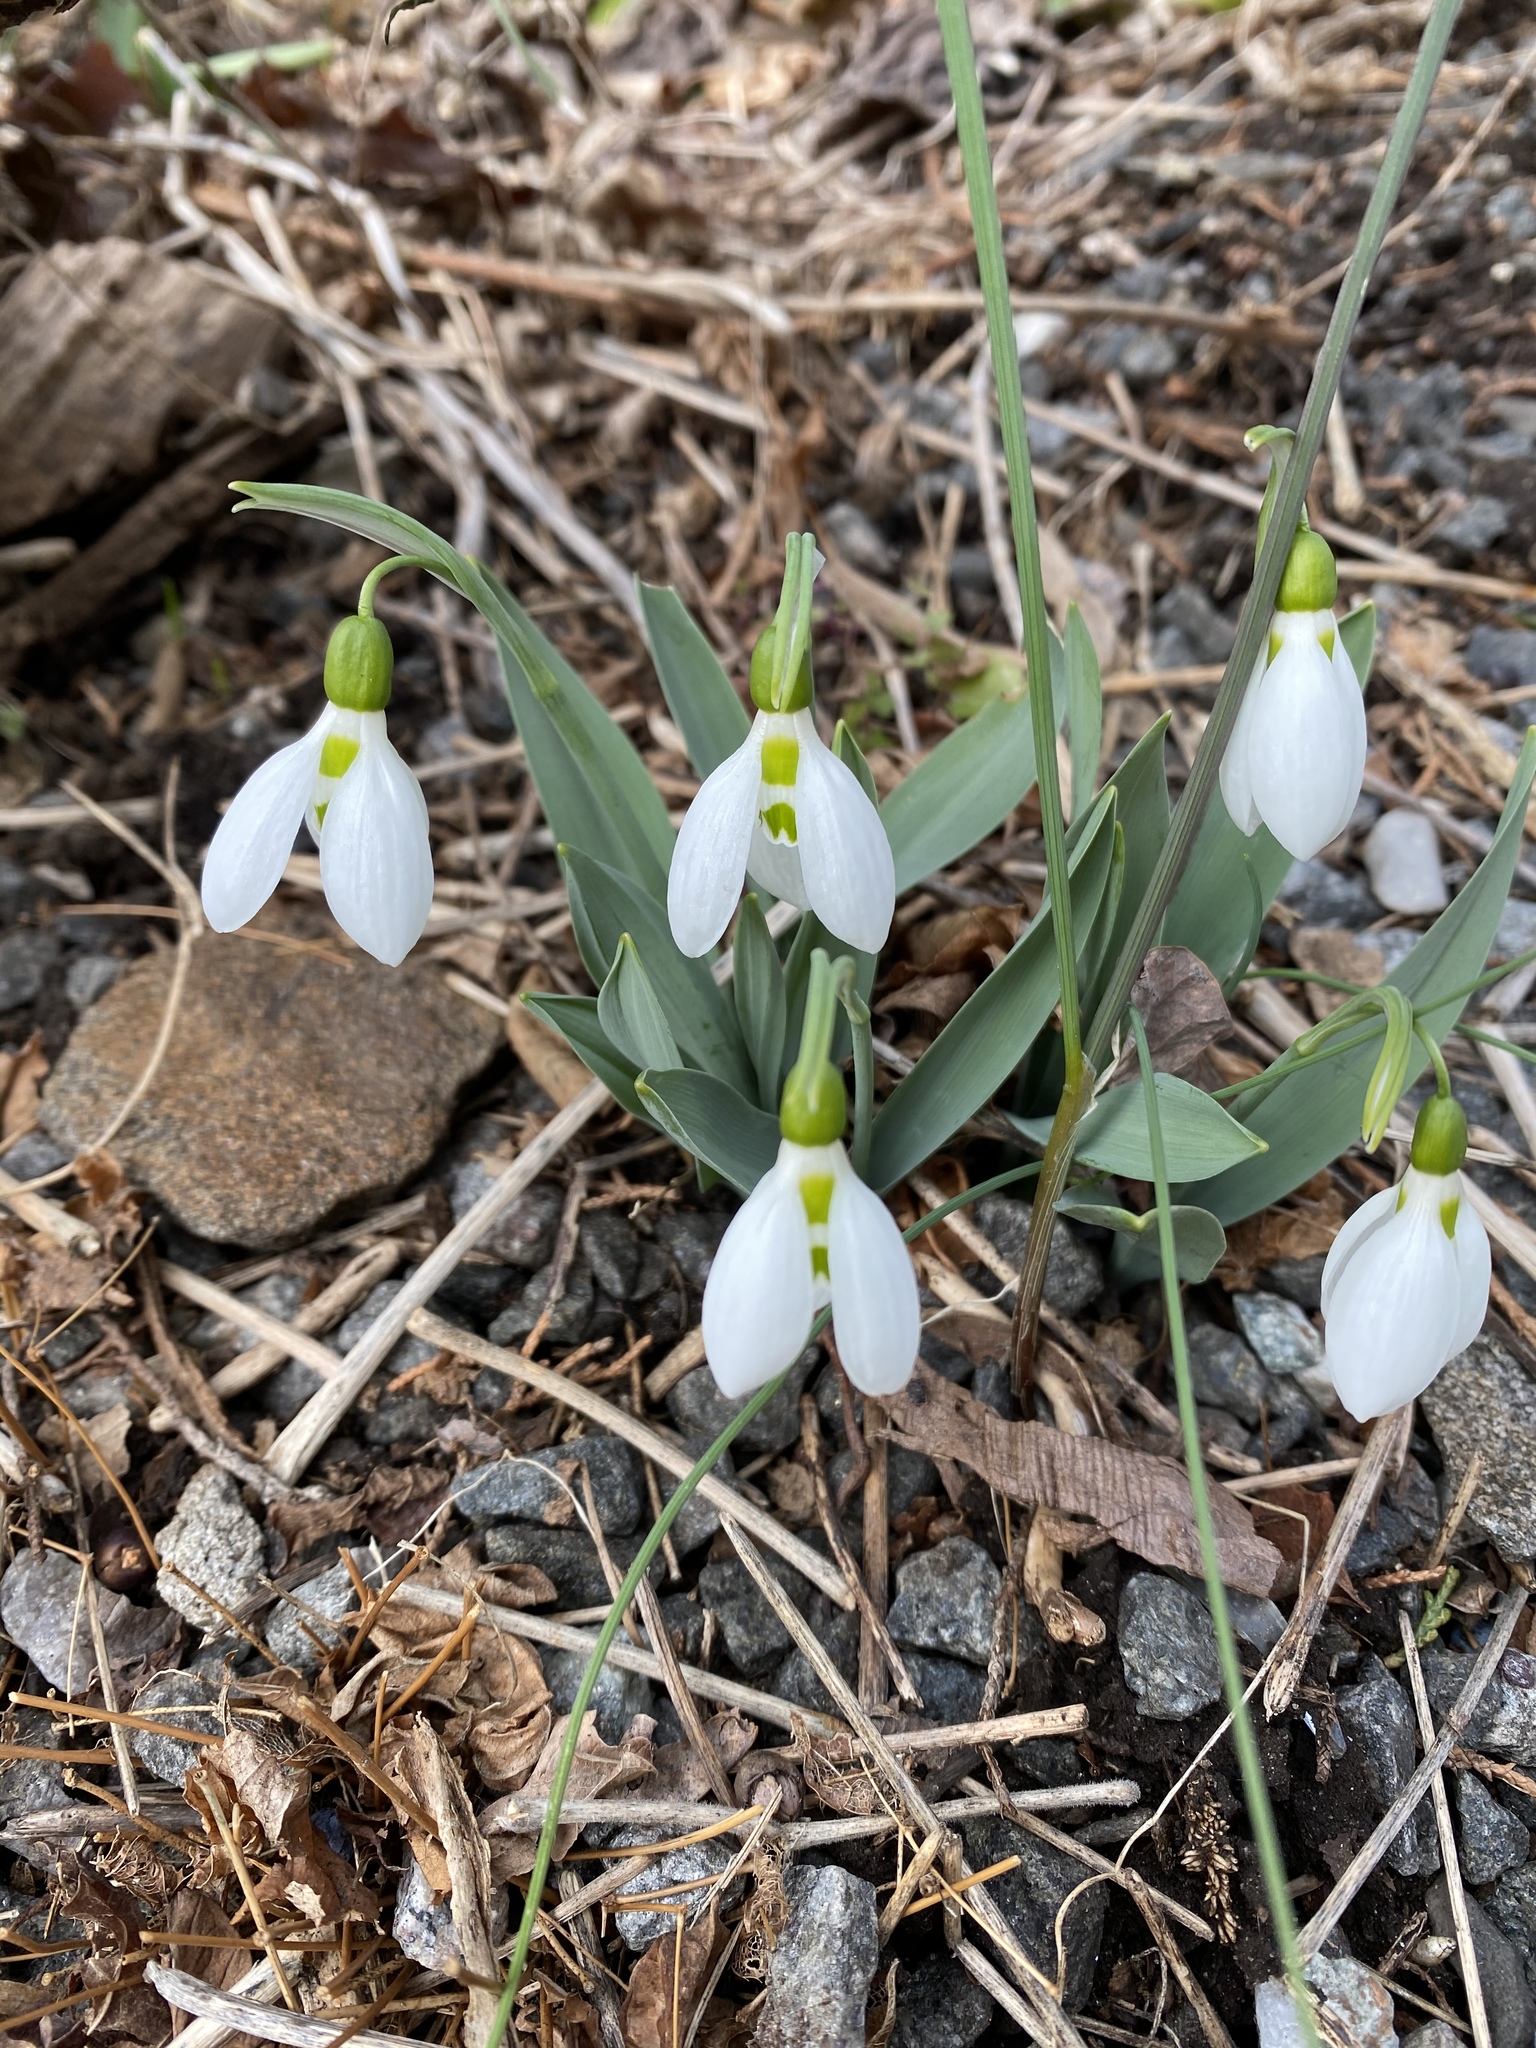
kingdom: Plantae
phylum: Tracheophyta
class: Liliopsida
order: Asparagales
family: Amaryllidaceae
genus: Galanthus
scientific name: Galanthus elwesii
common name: Greater snowdrop
